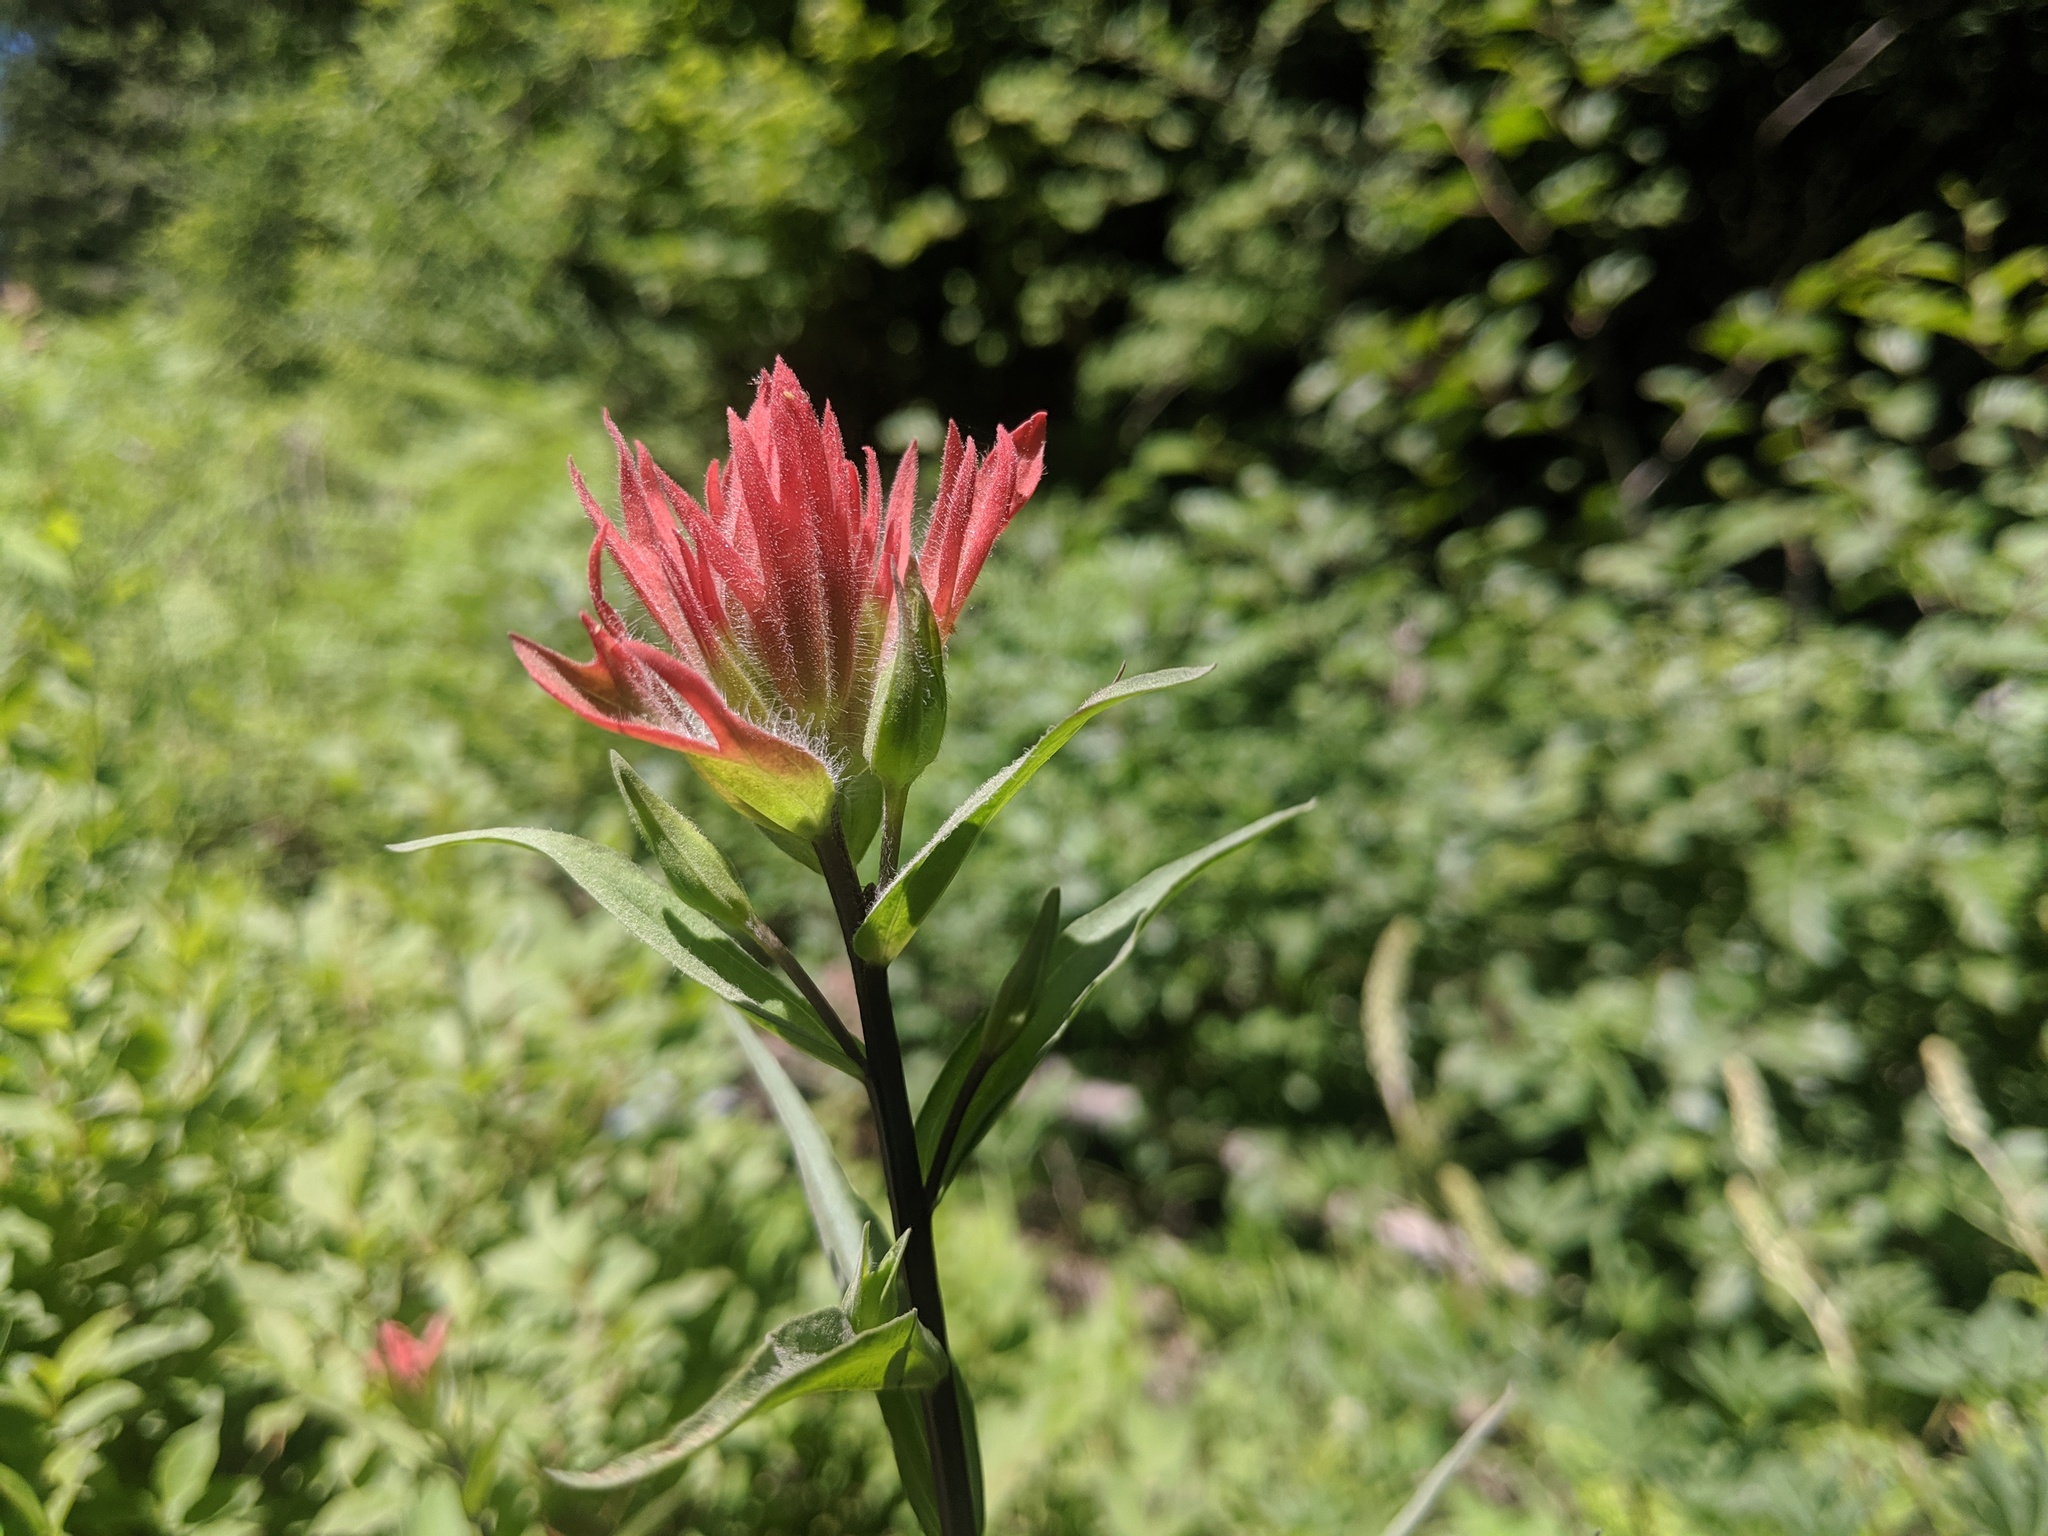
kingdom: Plantae
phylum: Tracheophyta
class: Magnoliopsida
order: Lamiales
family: Orobanchaceae
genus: Castilleja
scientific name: Castilleja miniata
